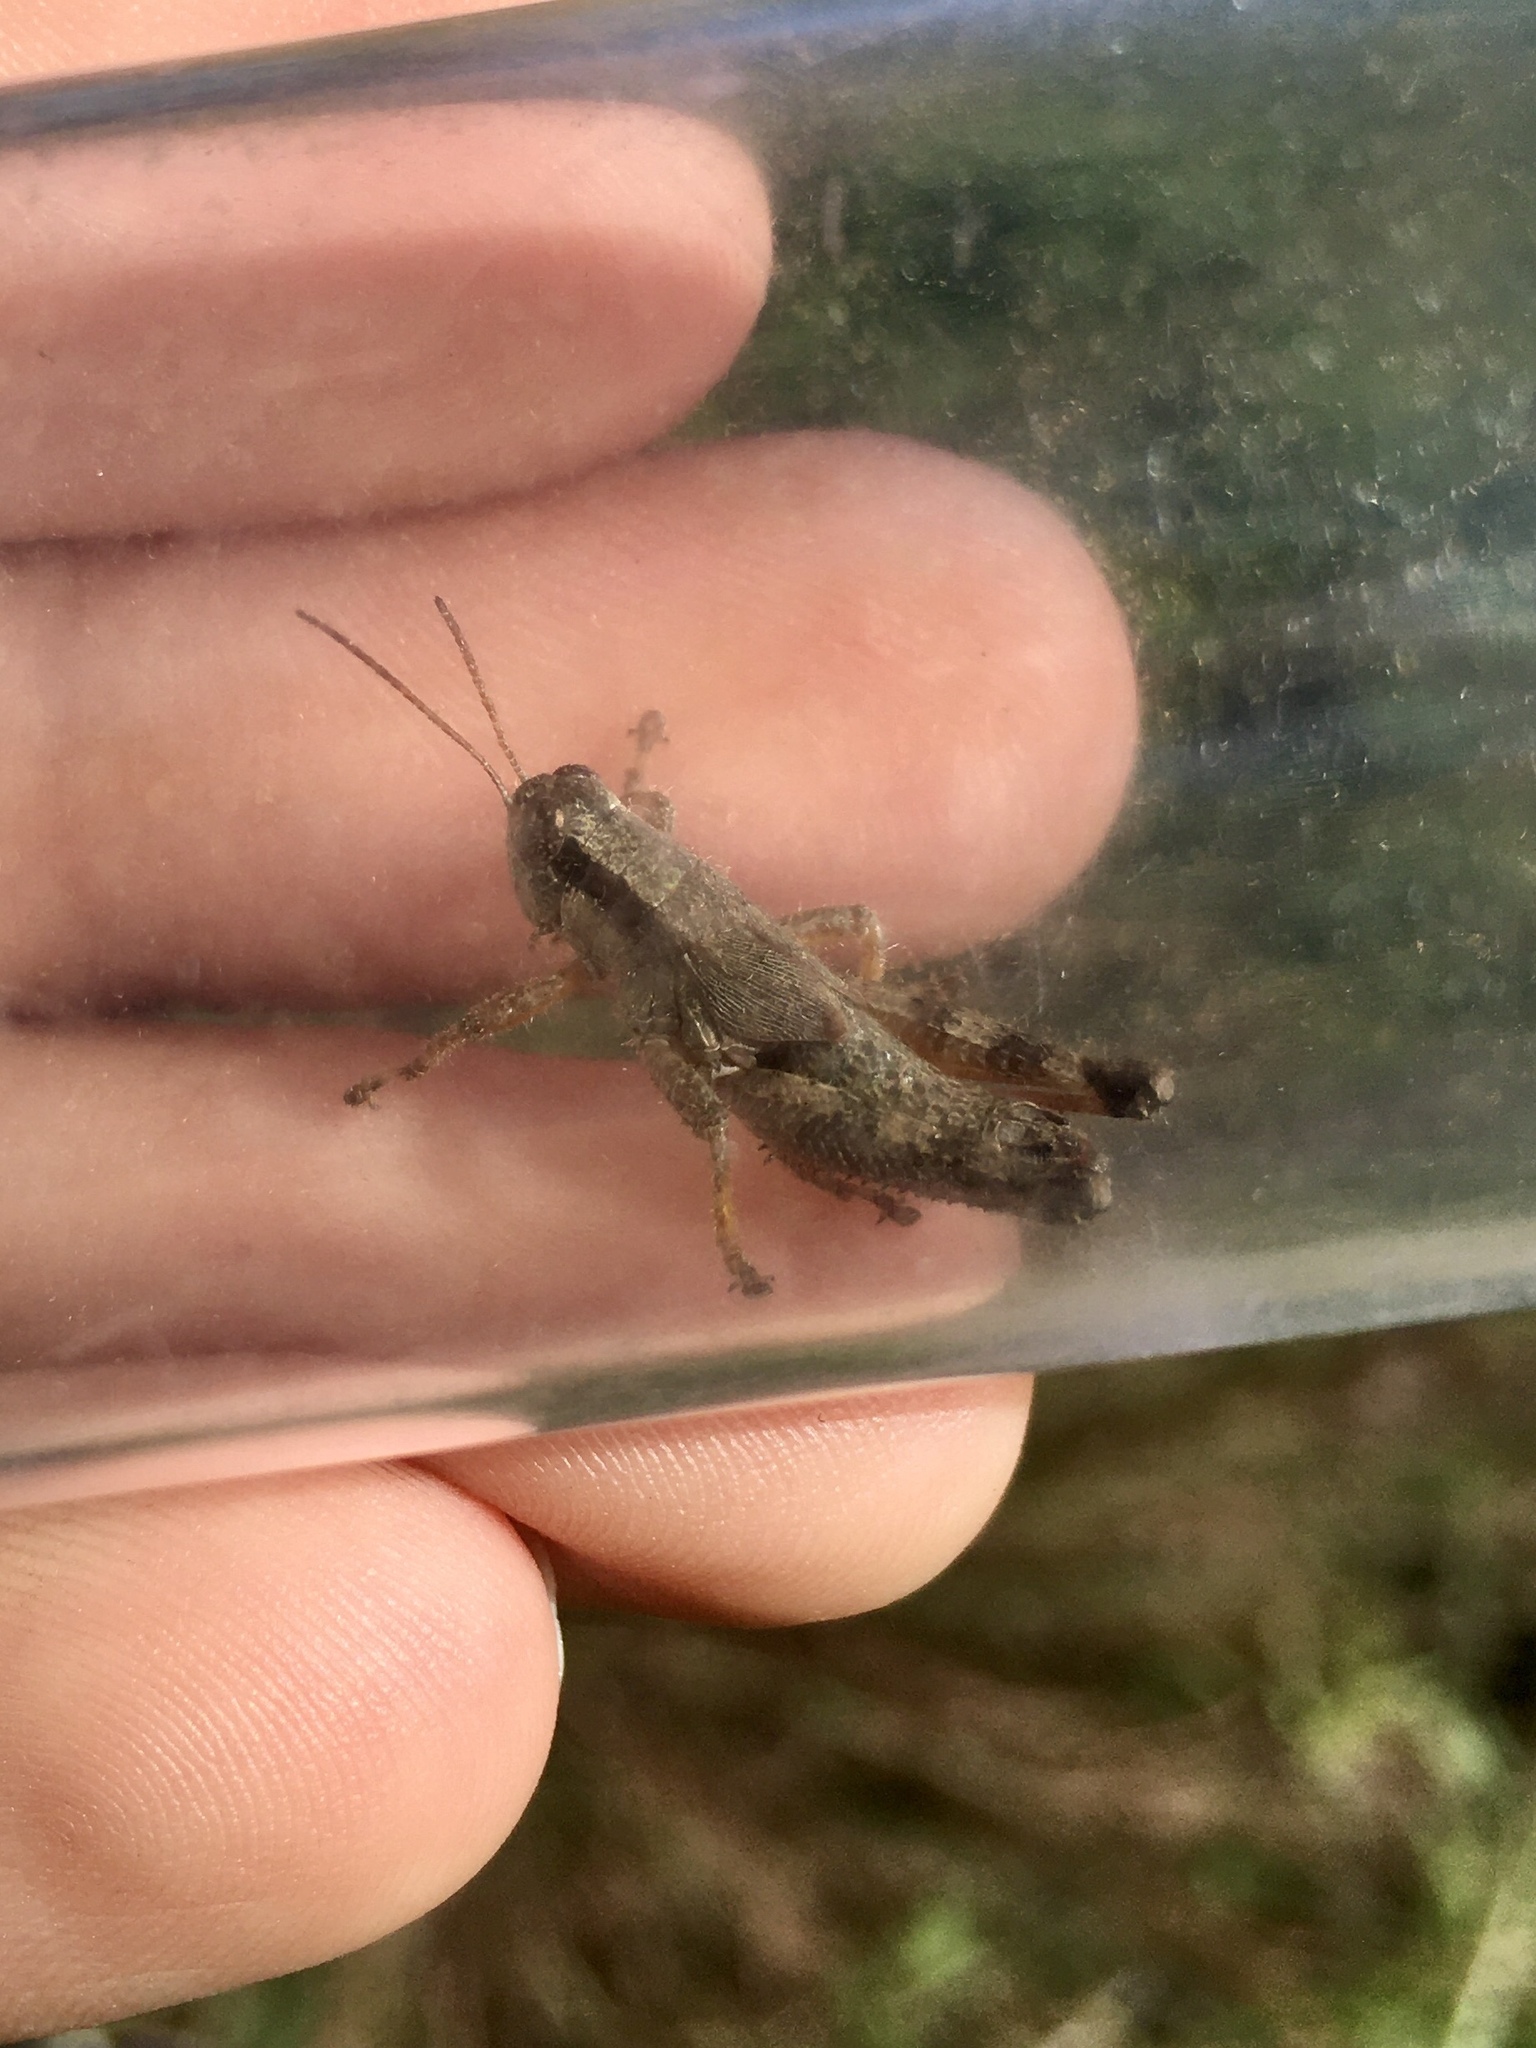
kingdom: Animalia
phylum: Arthropoda
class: Insecta
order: Orthoptera
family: Acrididae
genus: Melanoplus
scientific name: Melanoplus scudderi
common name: Scudder's short-winged locust
